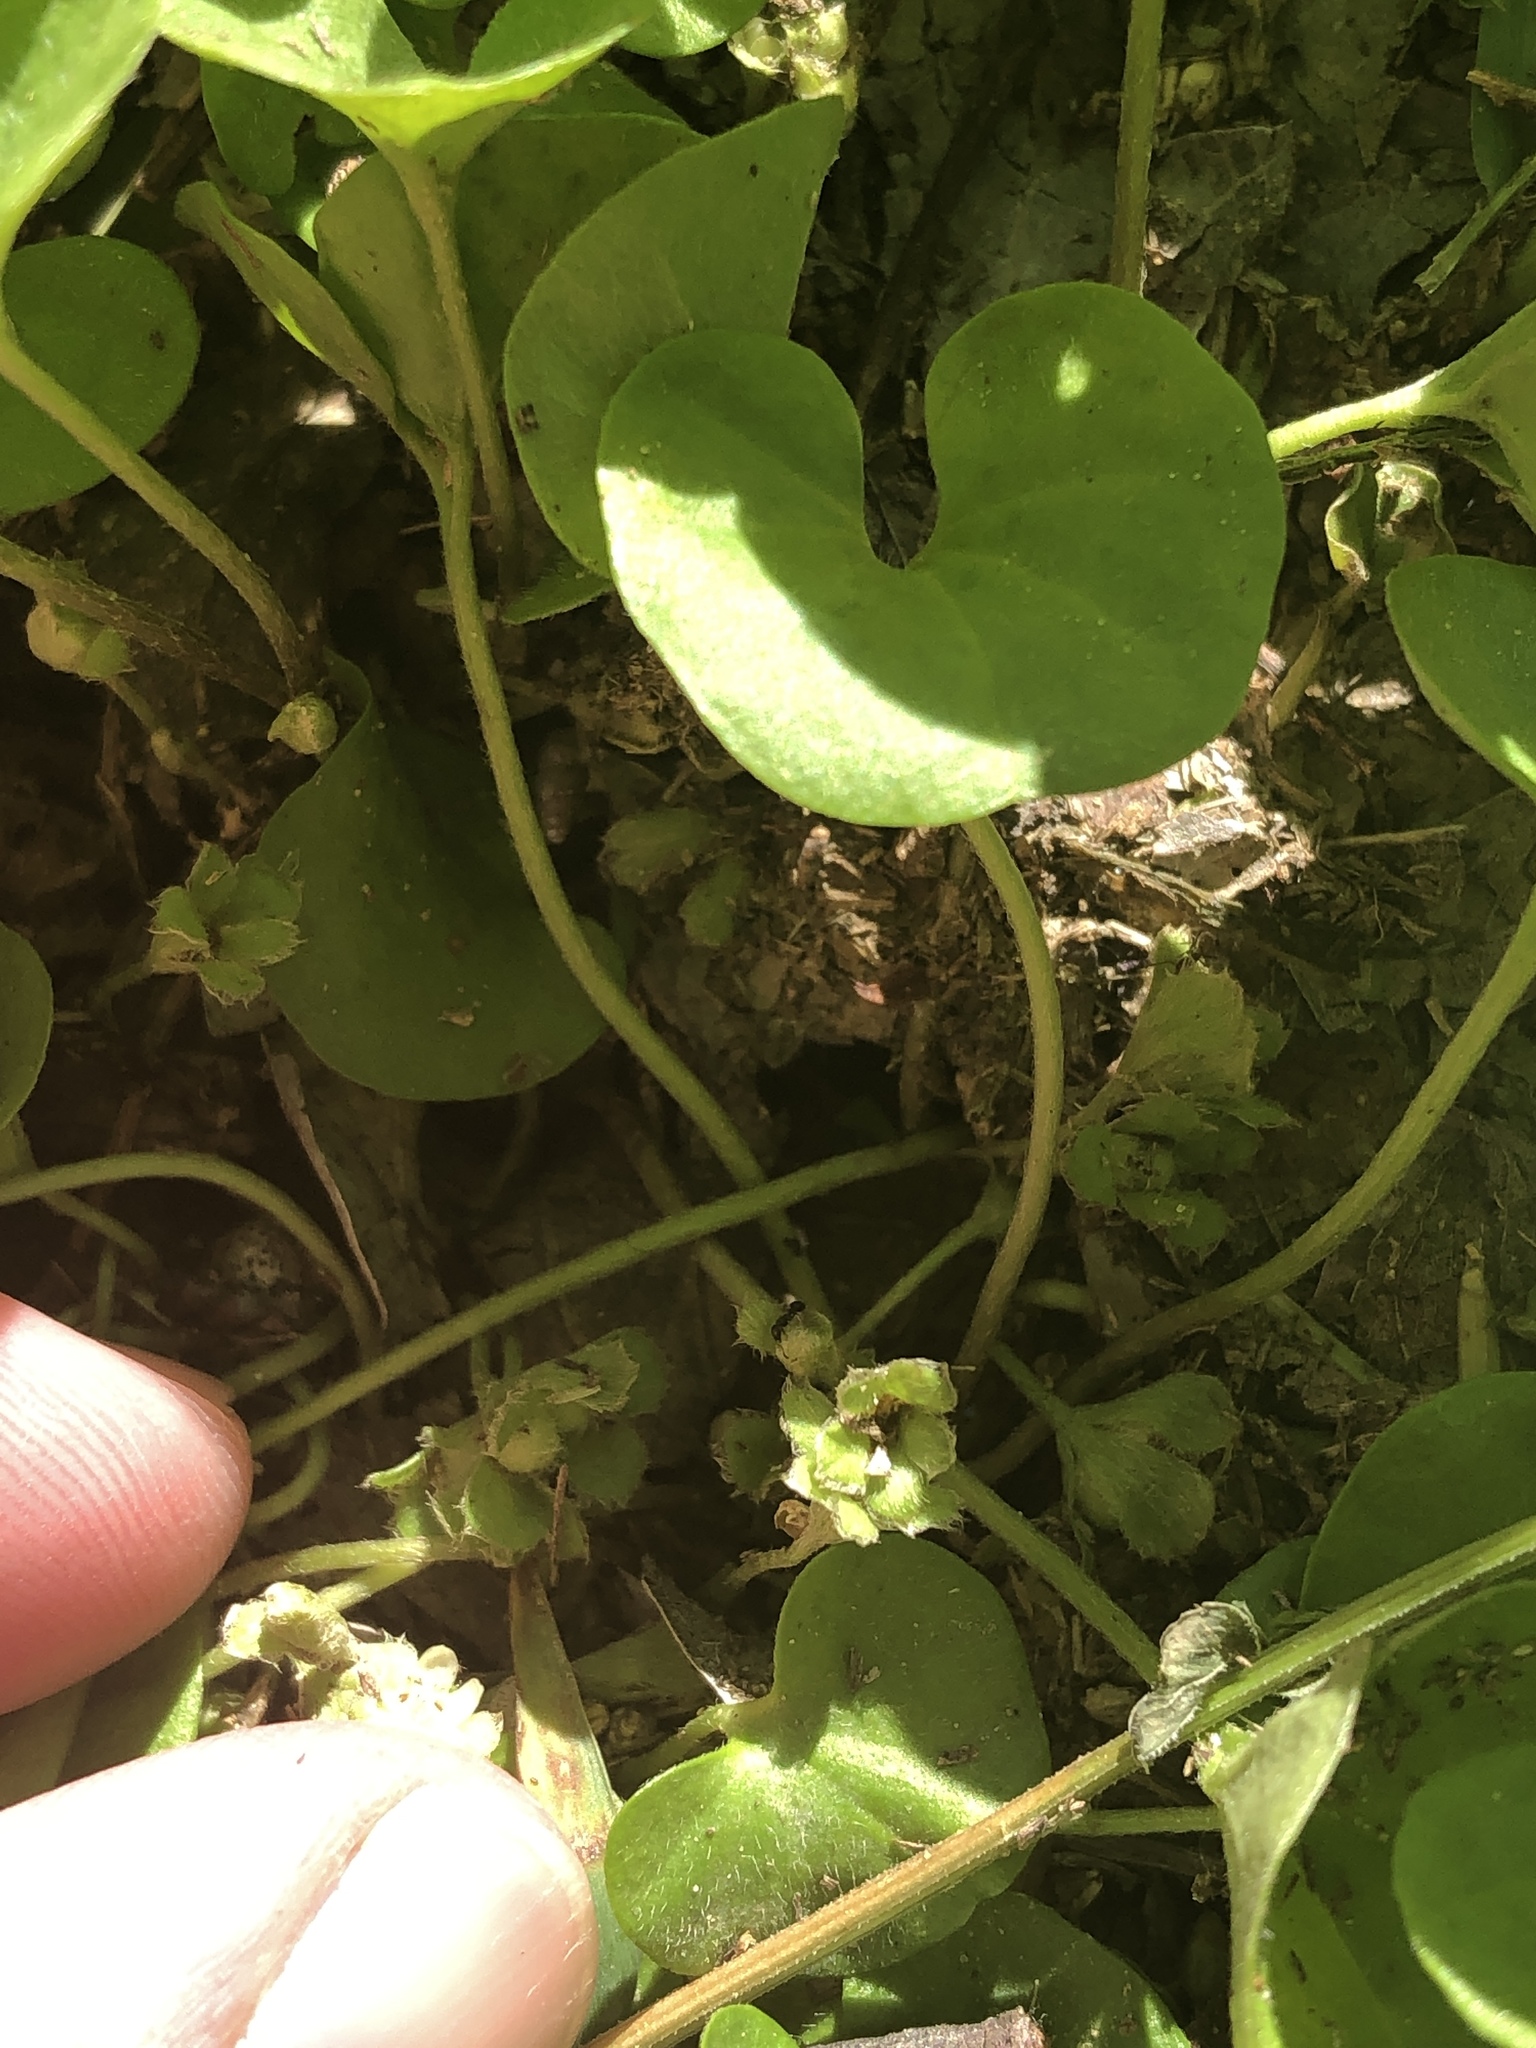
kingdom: Plantae
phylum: Tracheophyta
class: Magnoliopsida
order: Solanales
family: Convolvulaceae
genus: Dichondra
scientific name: Dichondra carolinensis
